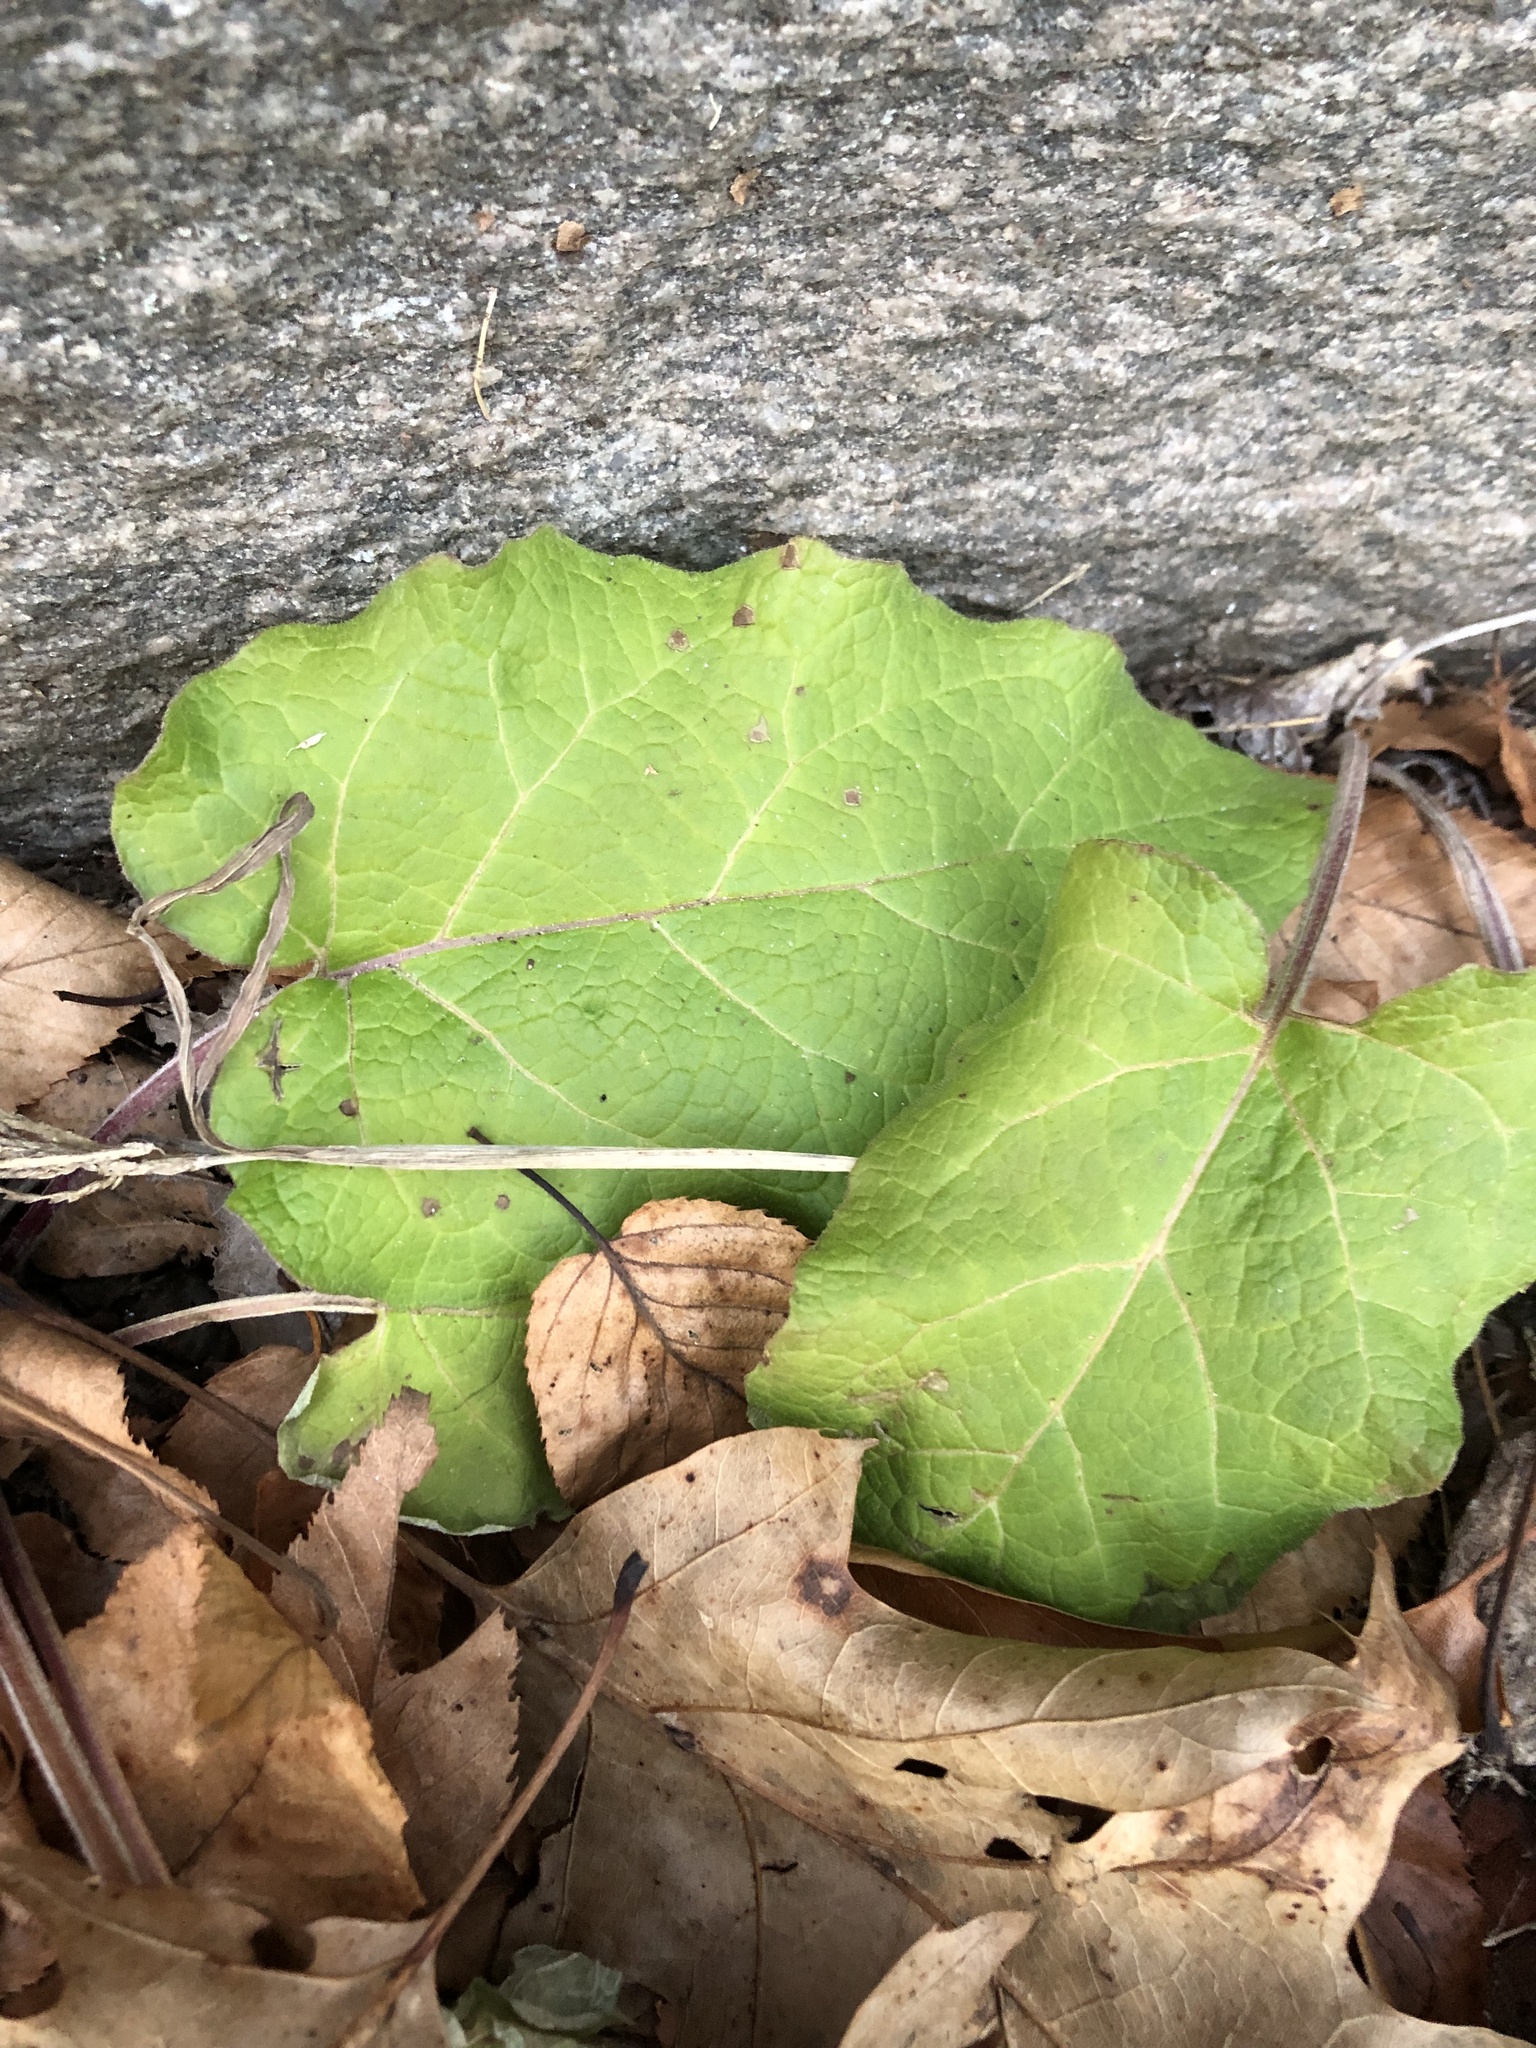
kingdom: Plantae
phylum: Tracheophyta
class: Magnoliopsida
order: Asterales
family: Asteraceae
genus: Arctium
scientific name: Arctium
